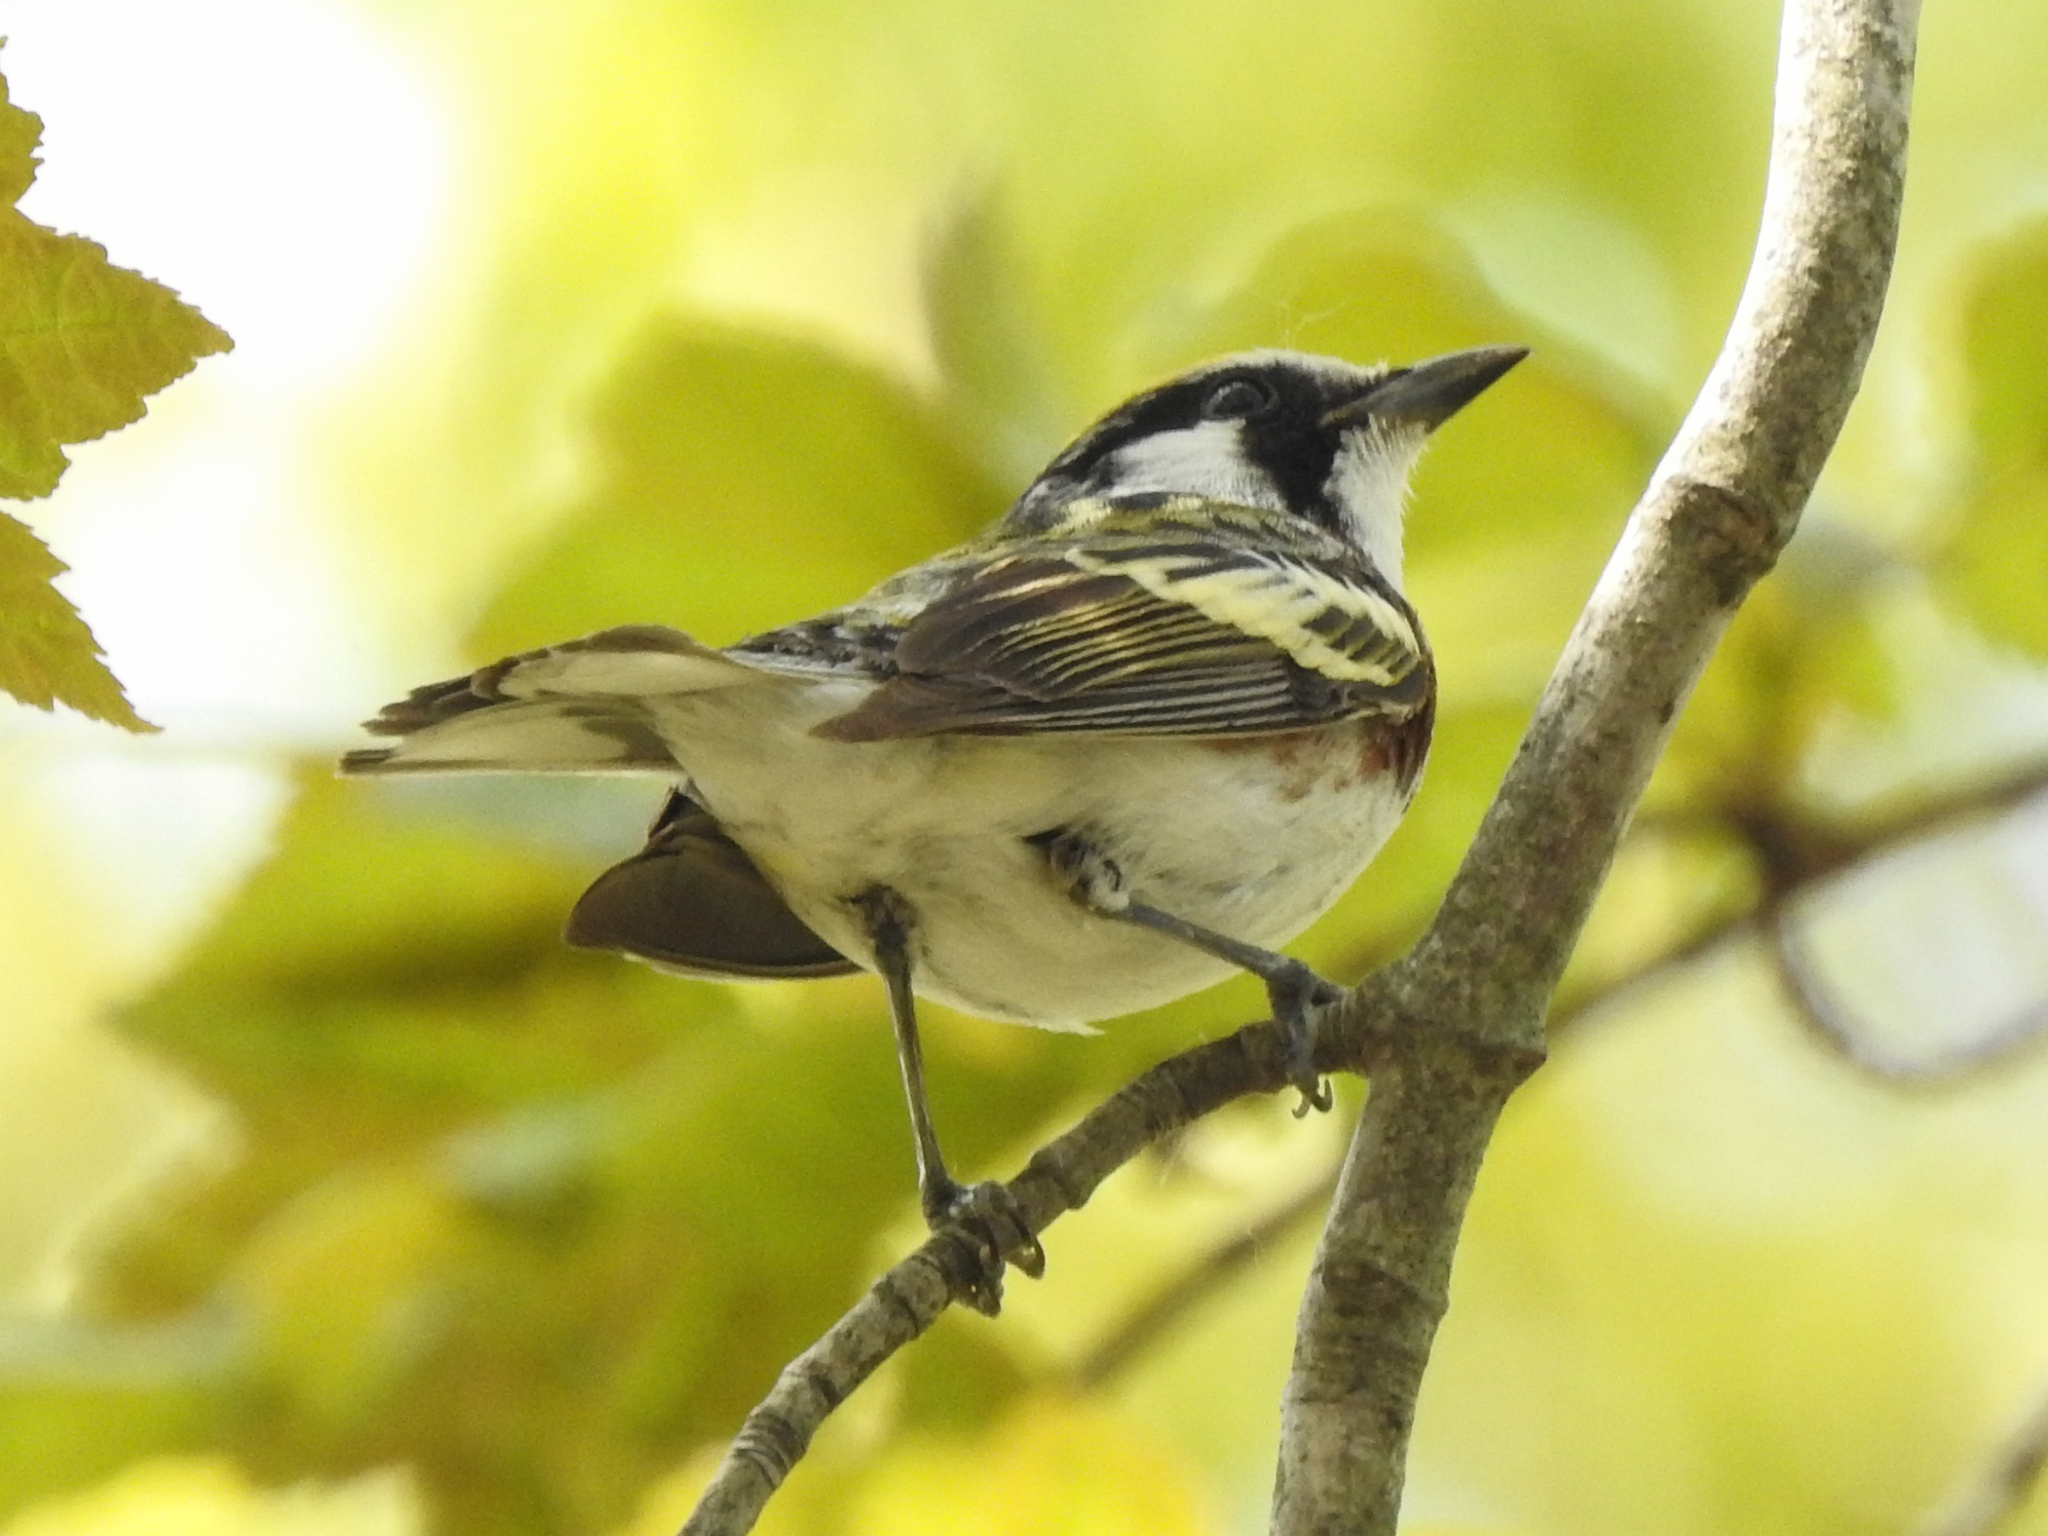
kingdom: Animalia
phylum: Chordata
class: Aves
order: Passeriformes
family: Parulidae
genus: Setophaga
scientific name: Setophaga pensylvanica
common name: Chestnut-sided warbler
